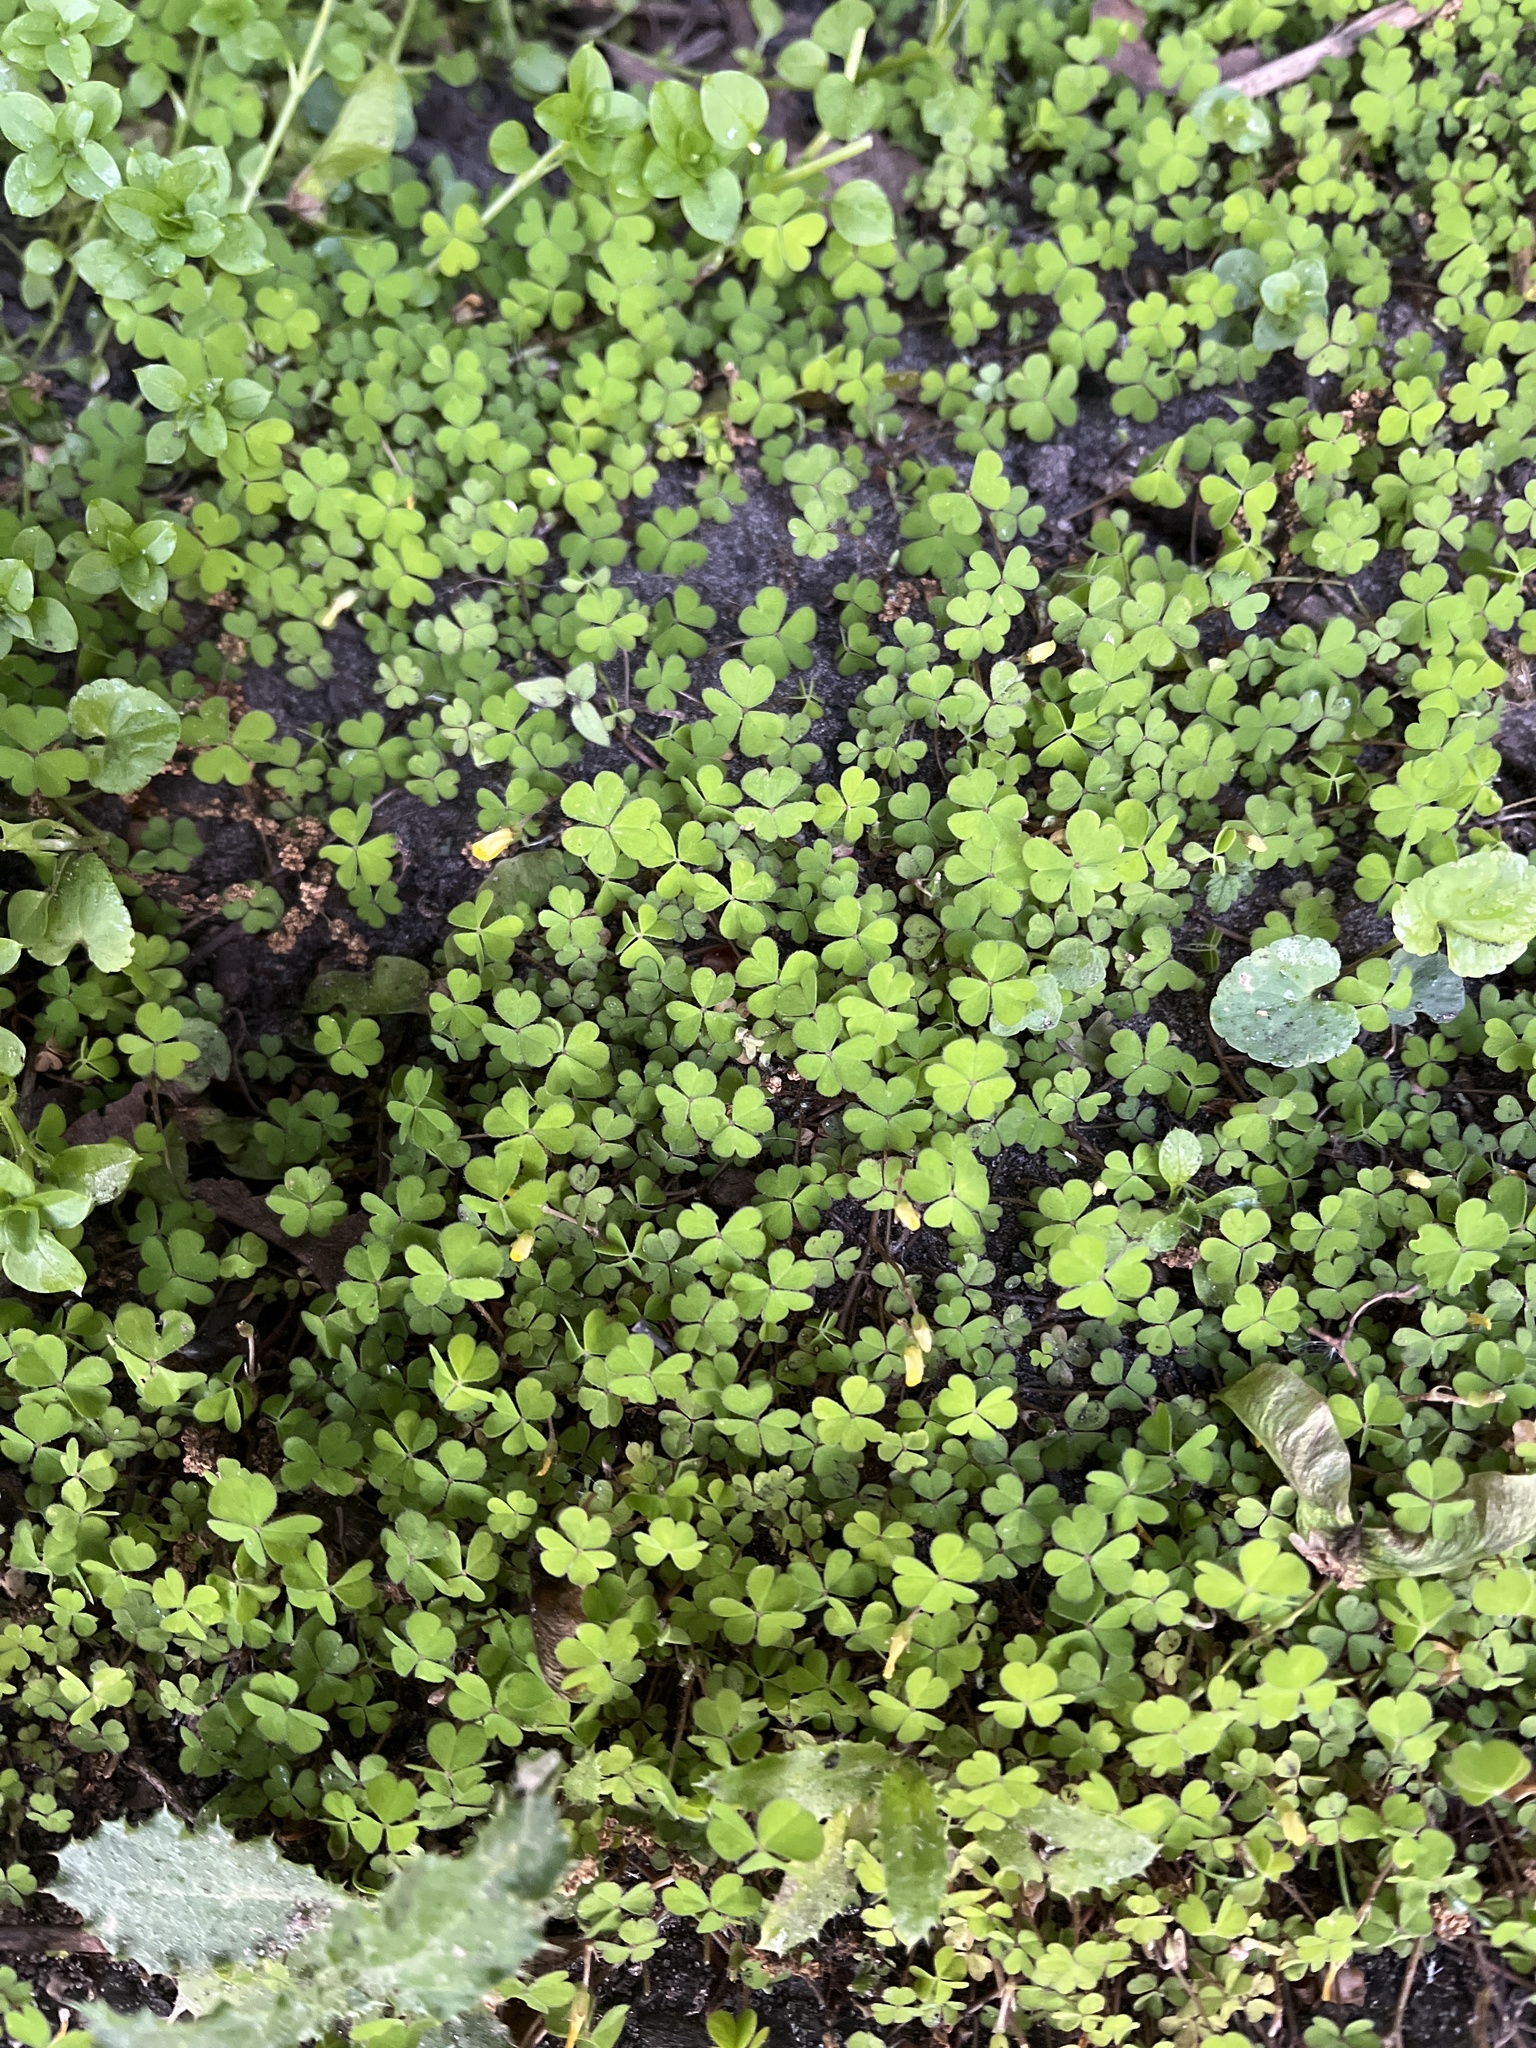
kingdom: Plantae
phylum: Tracheophyta
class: Magnoliopsida
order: Oxalidales
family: Oxalidaceae
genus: Oxalis
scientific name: Oxalis exilis
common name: Least yellow-sorrel
